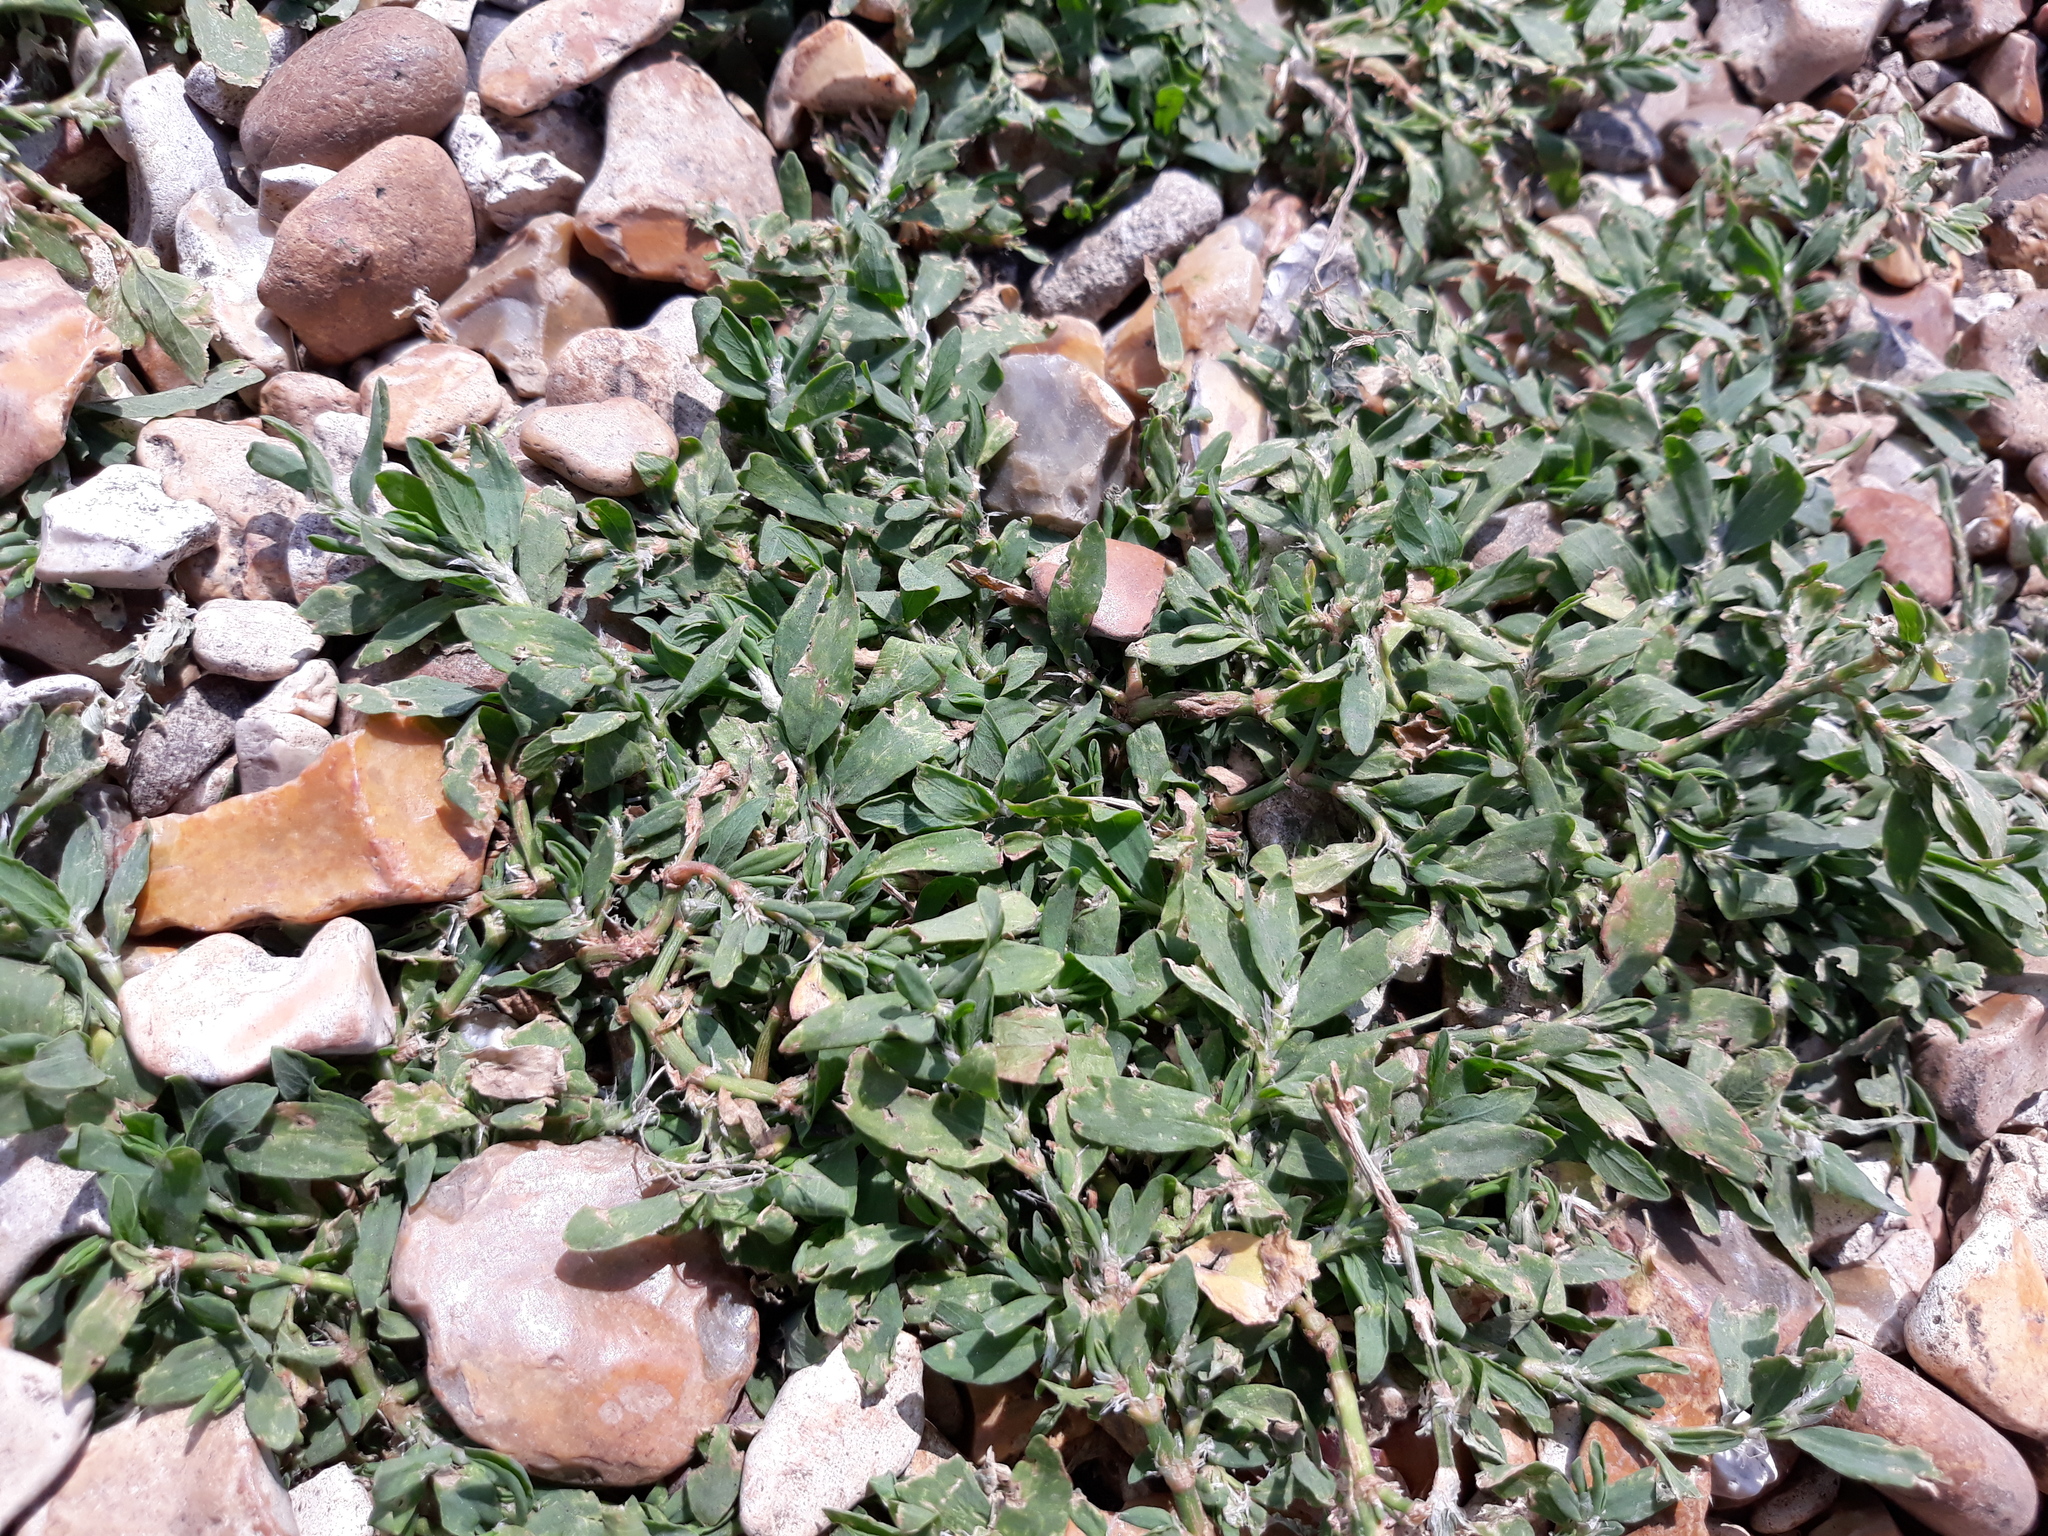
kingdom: Plantae
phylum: Tracheophyta
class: Magnoliopsida
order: Caryophyllales
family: Polygonaceae
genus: Polygonum
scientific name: Polygonum aviculare
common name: Prostrate knotweed
